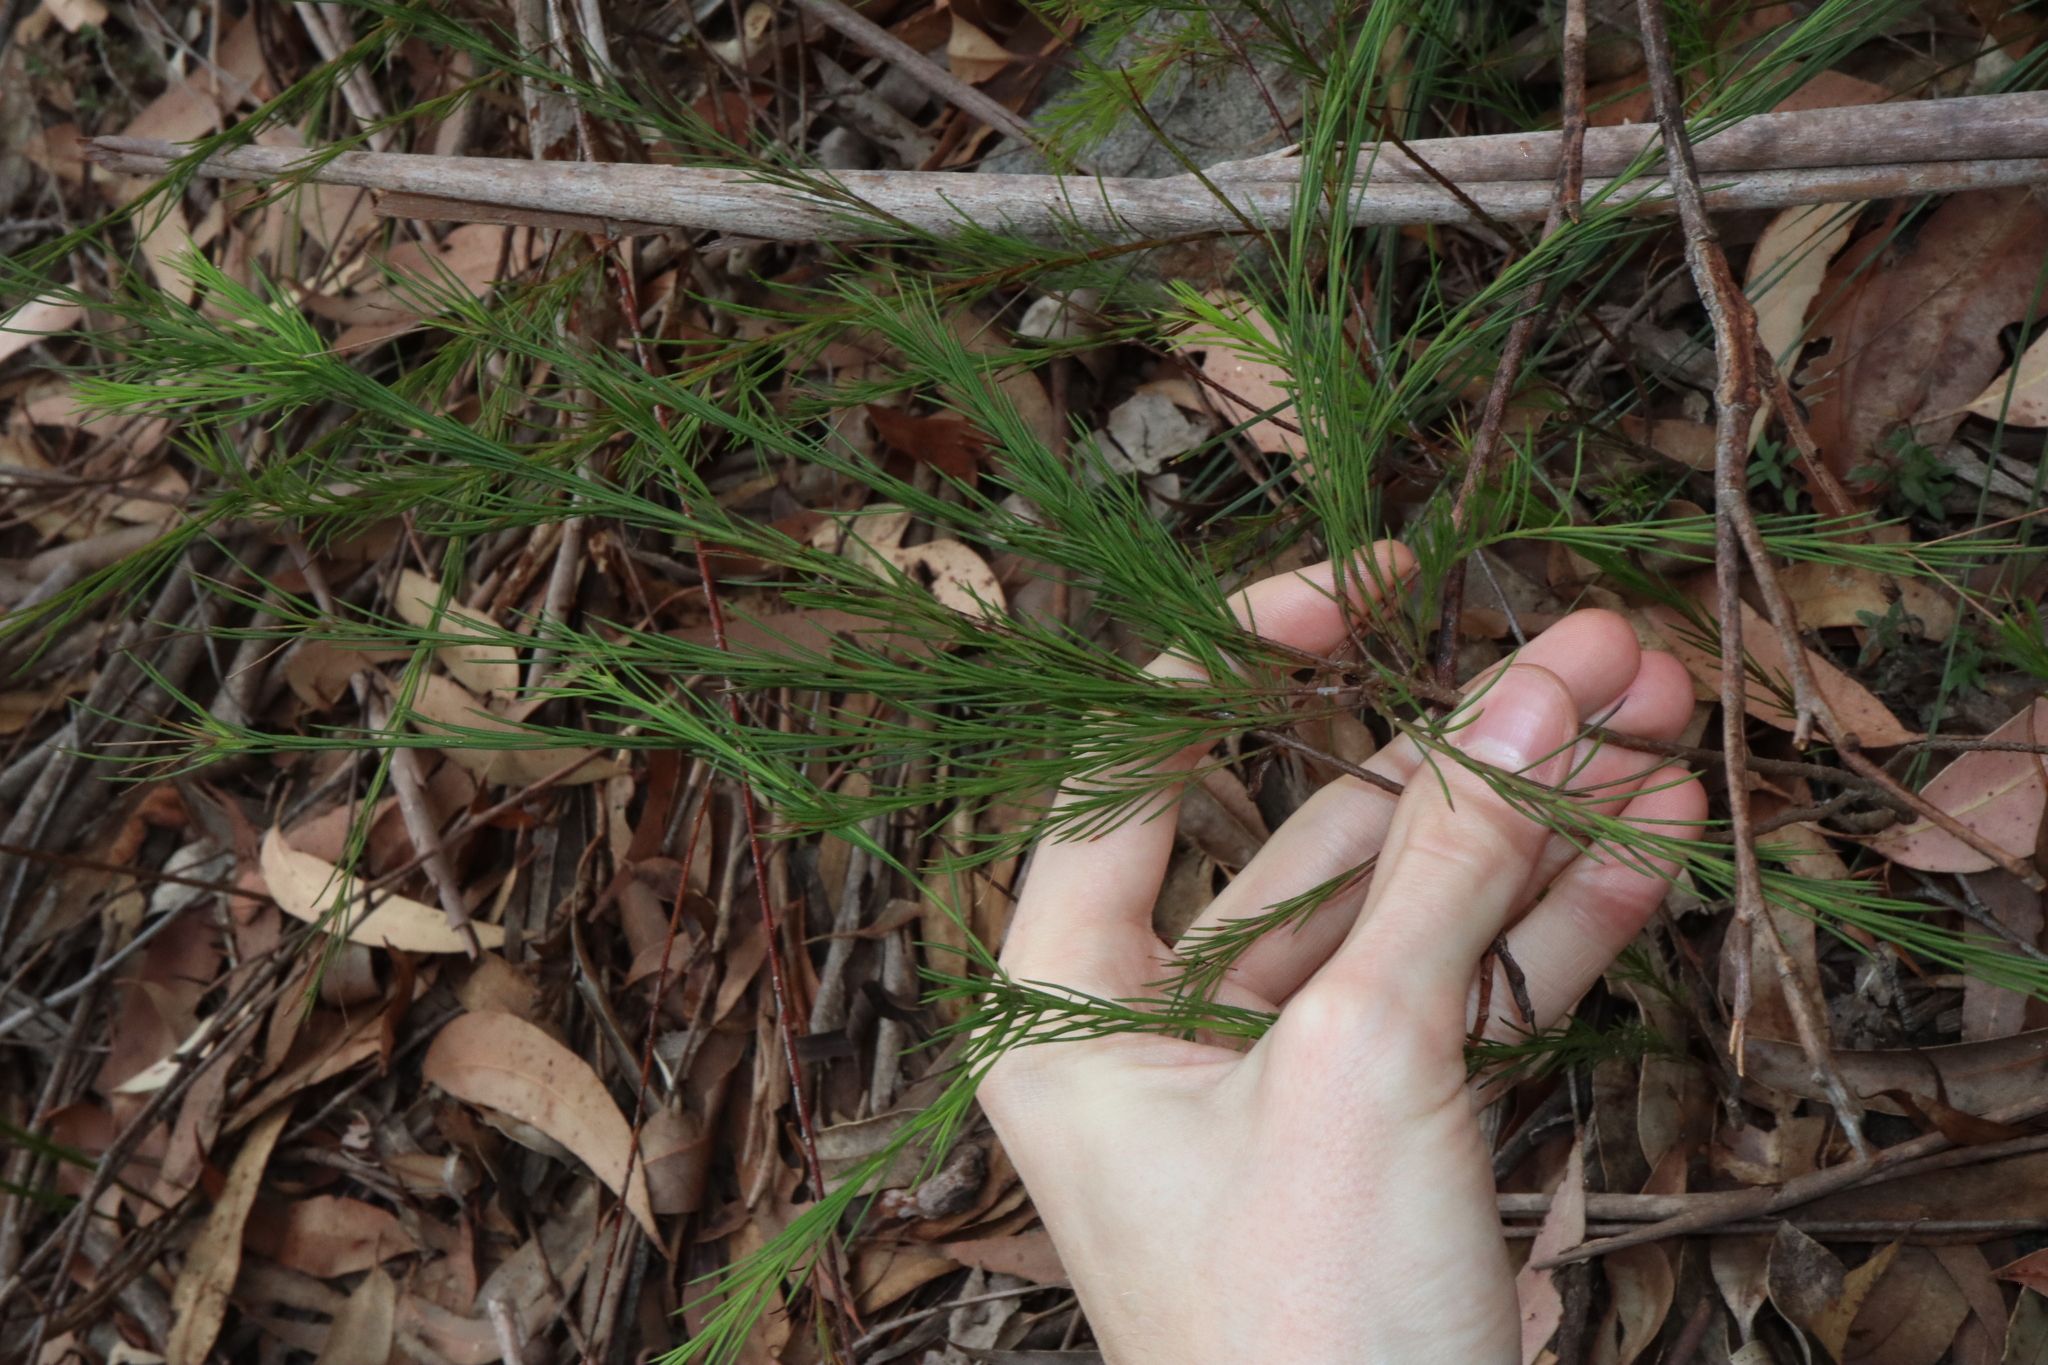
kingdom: Plantae
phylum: Tracheophyta
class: Magnoliopsida
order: Apiales
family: Apiaceae
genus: Platysace
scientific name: Platysace linearifolia
